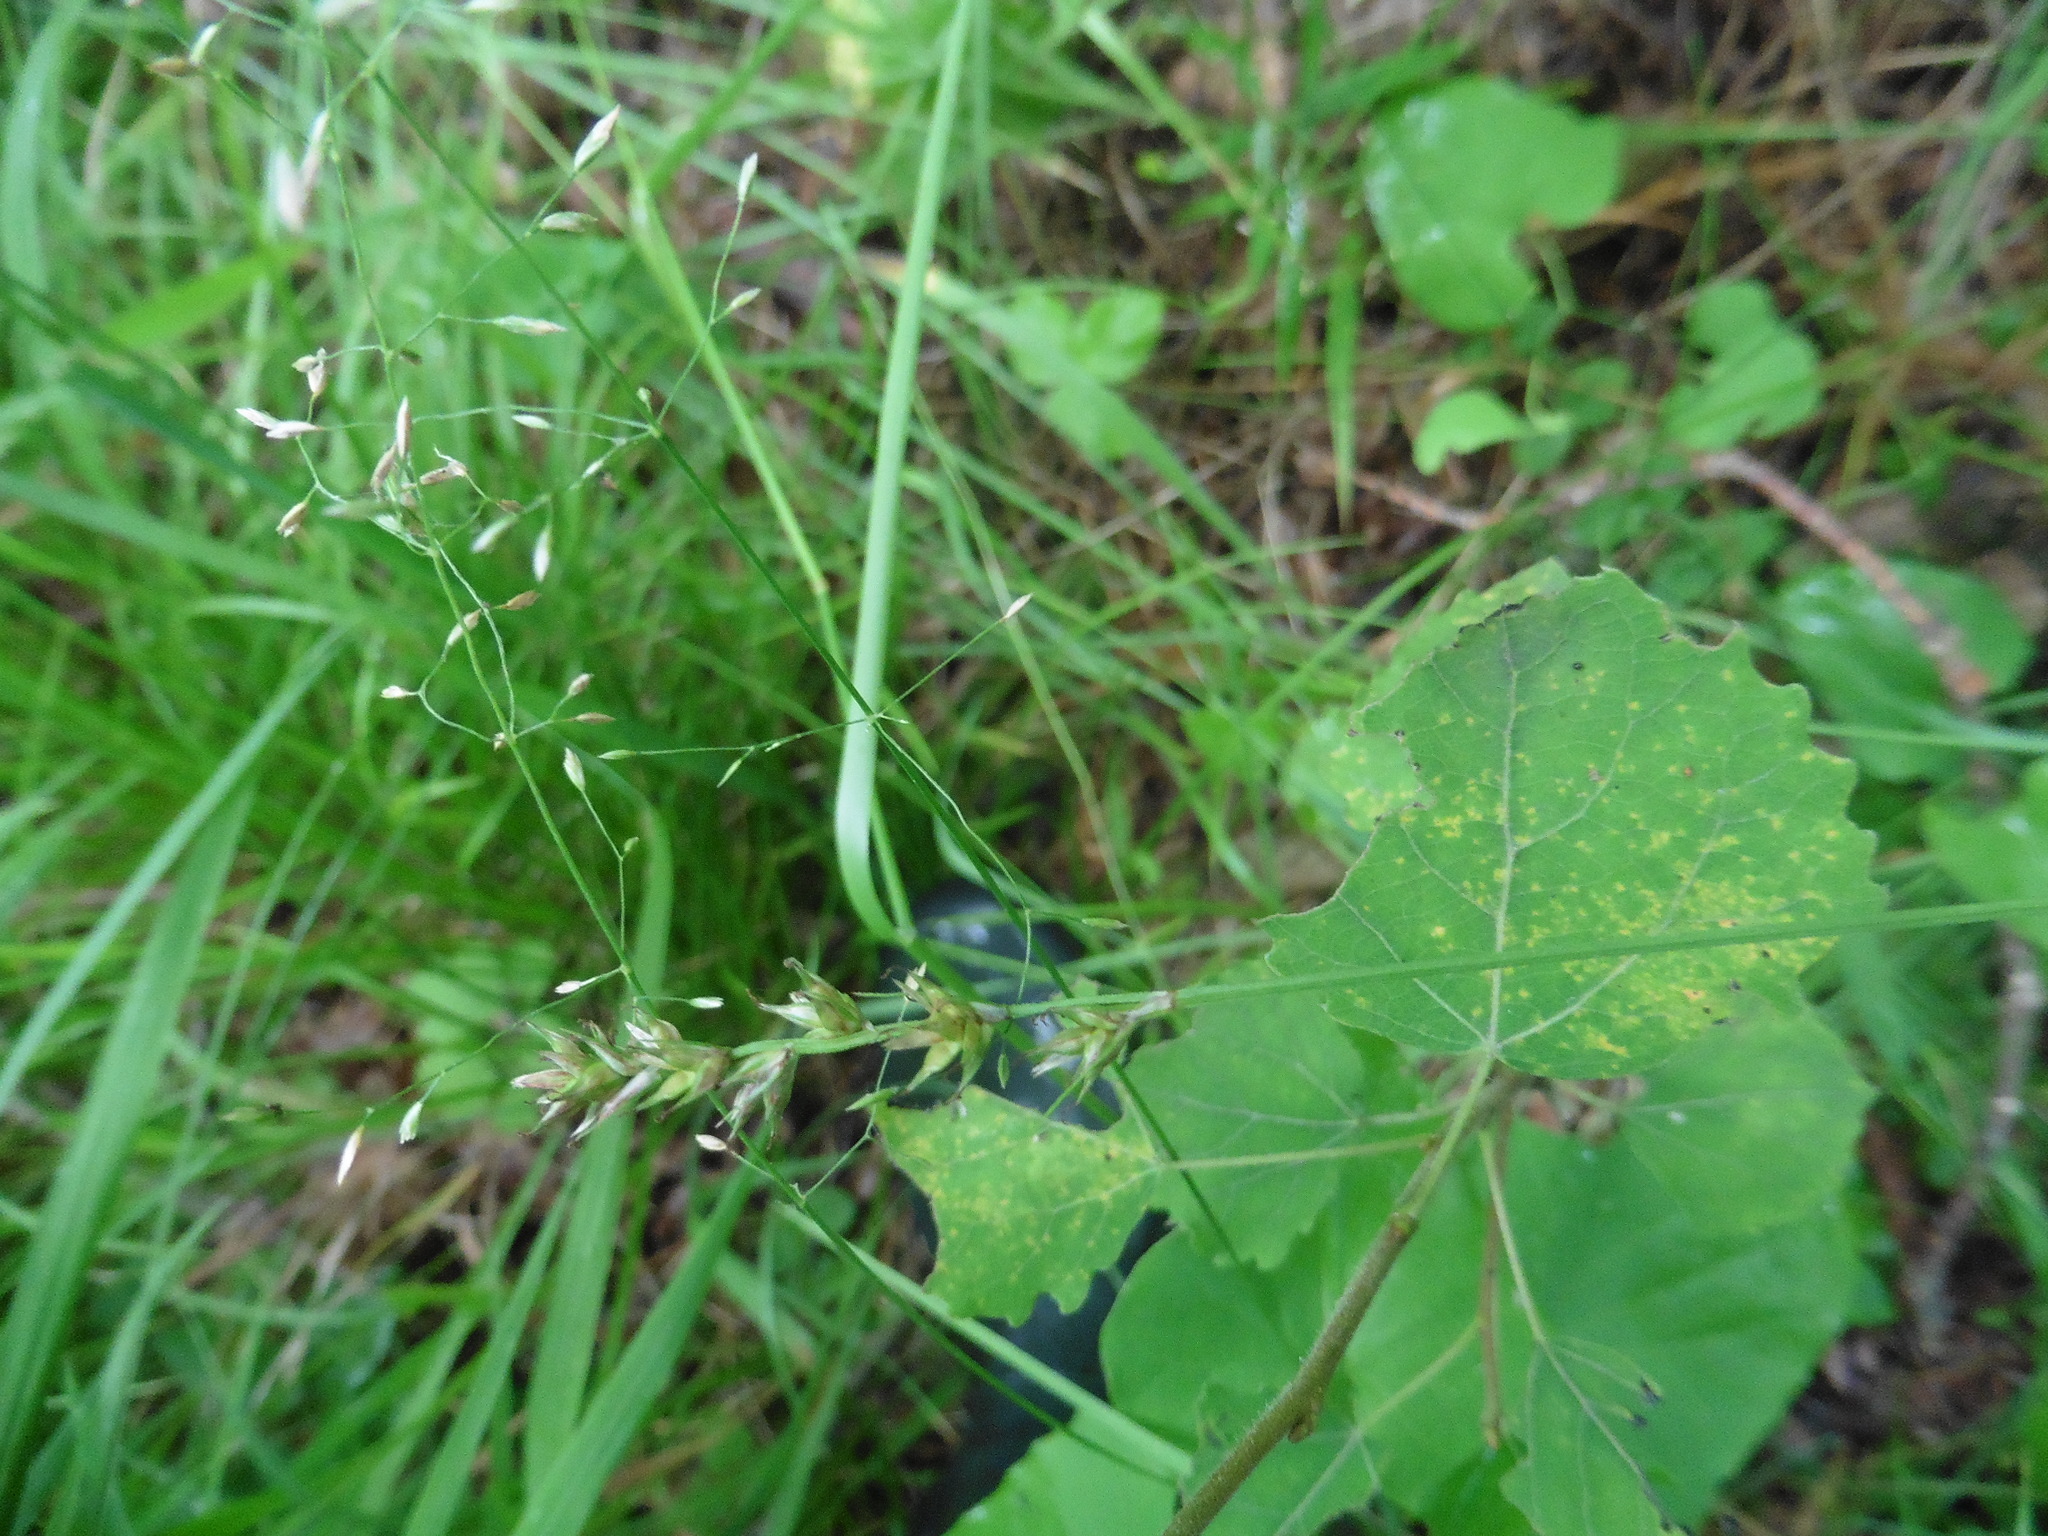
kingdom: Plantae
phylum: Tracheophyta
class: Liliopsida
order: Poales
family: Cyperaceae
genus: Carex
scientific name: Carex spicata
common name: Spiked sedge
